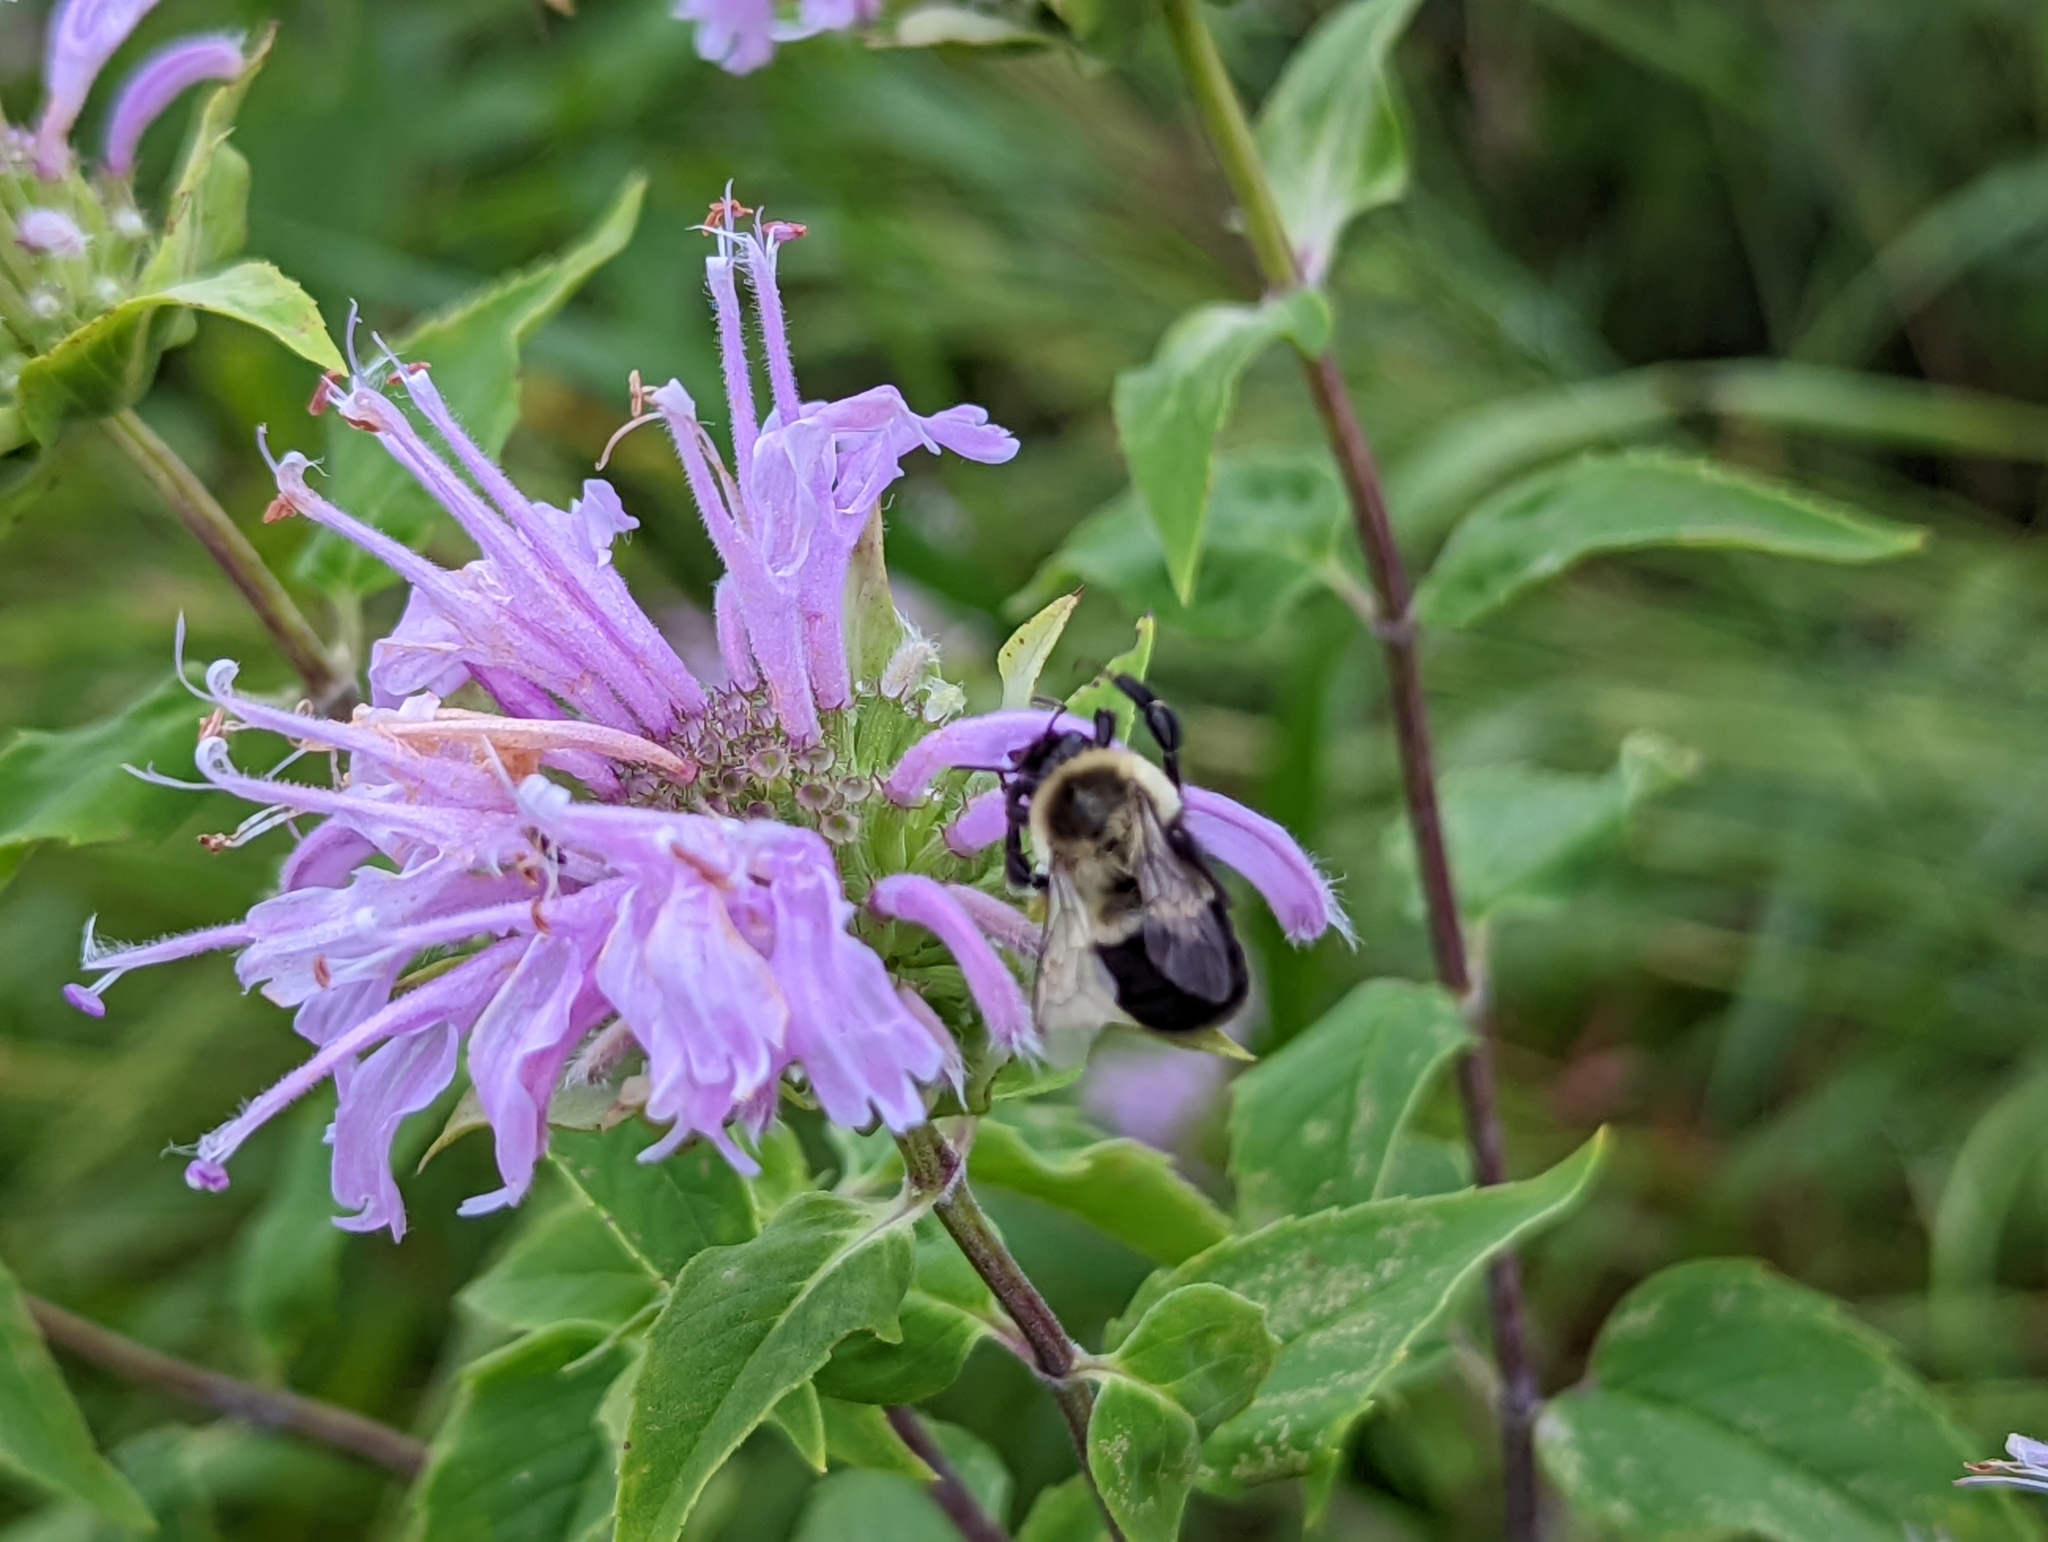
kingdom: Animalia
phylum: Arthropoda
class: Insecta
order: Hymenoptera
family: Apidae
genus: Bombus
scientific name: Bombus impatiens
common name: Common eastern bumble bee
